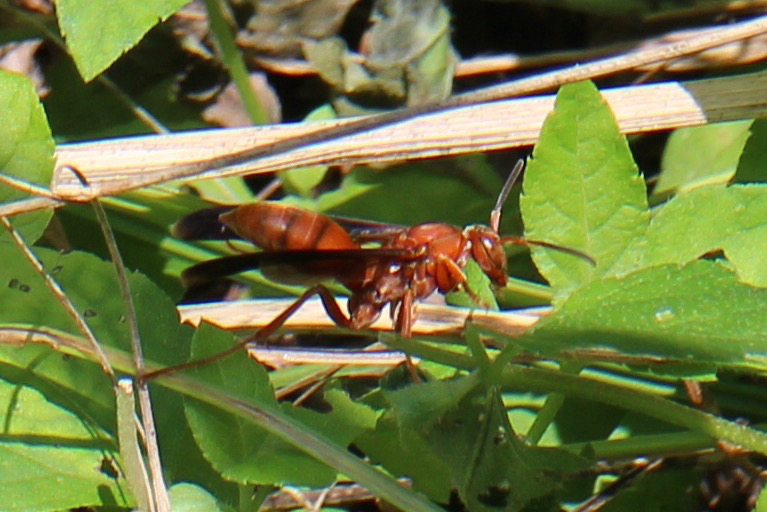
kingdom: Animalia
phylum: Arthropoda
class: Insecta
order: Hymenoptera
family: Eumenidae
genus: Polistes
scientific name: Polistes
